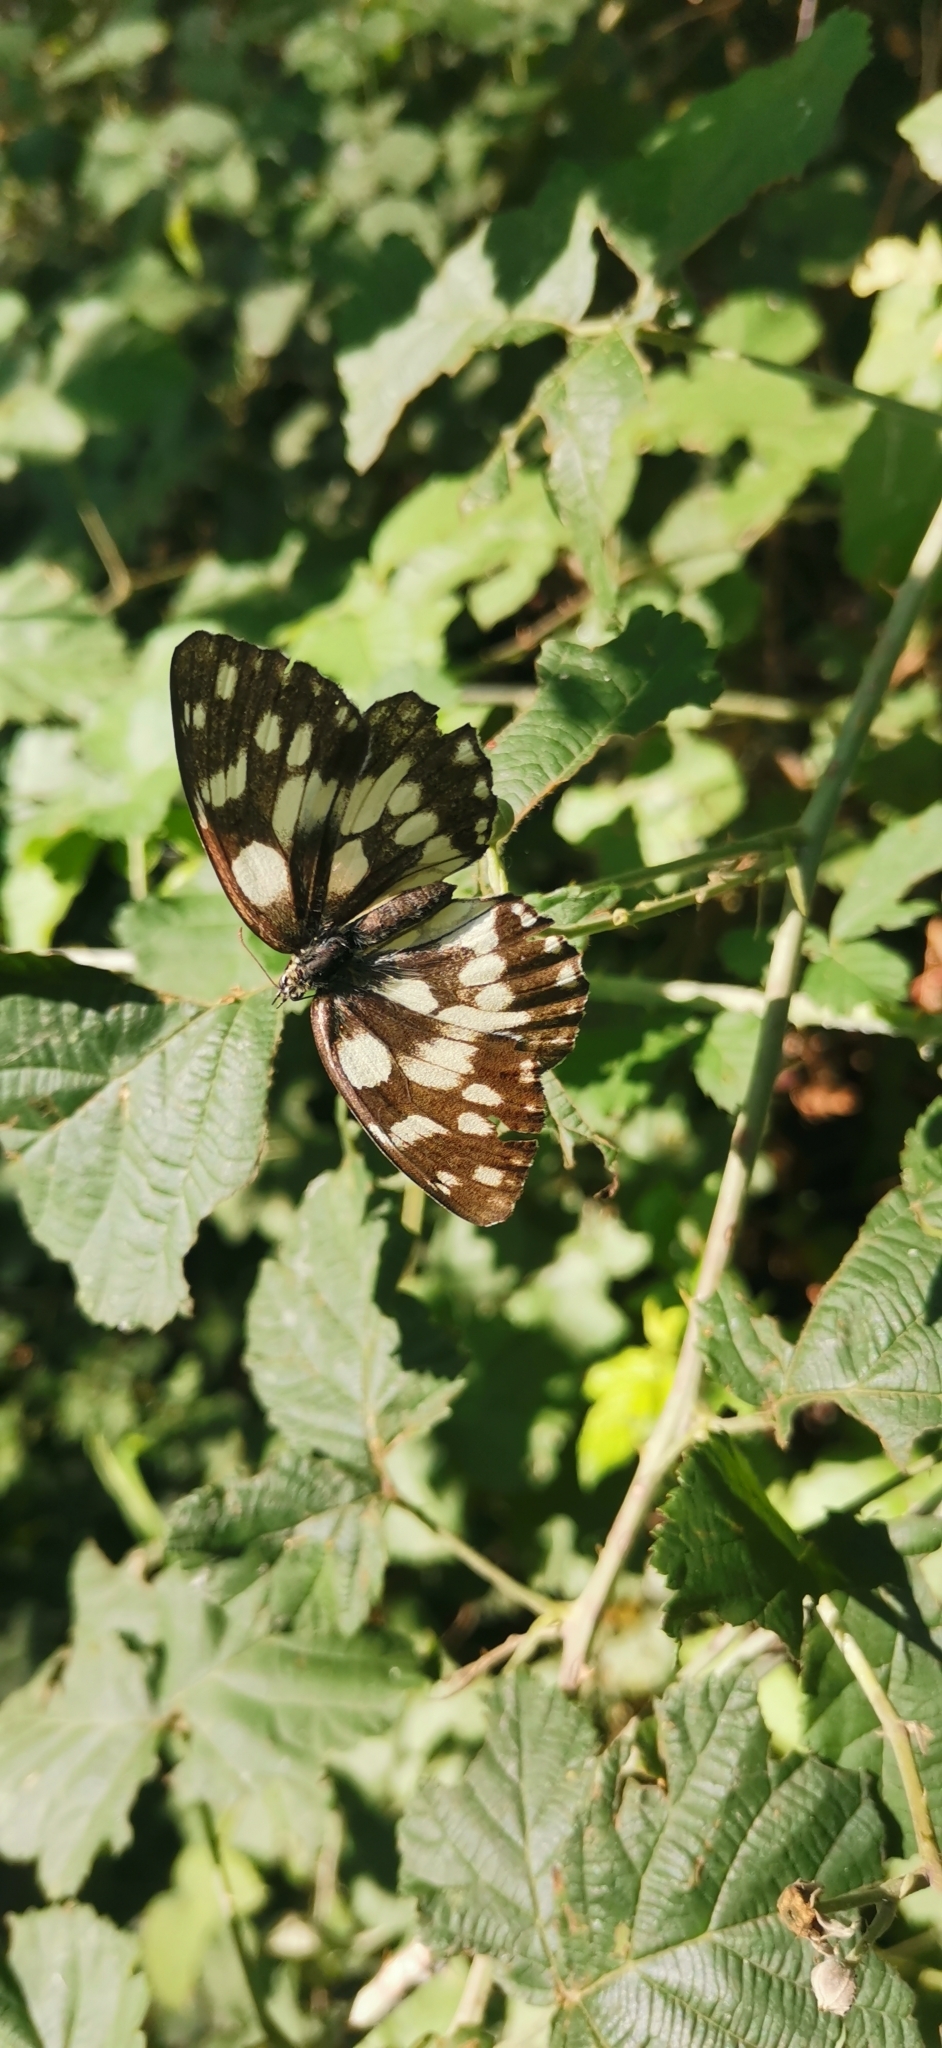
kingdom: Animalia
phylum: Arthropoda
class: Insecta
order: Lepidoptera
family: Nymphalidae
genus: Melanargia
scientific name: Melanargia galathea
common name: Marbled white
